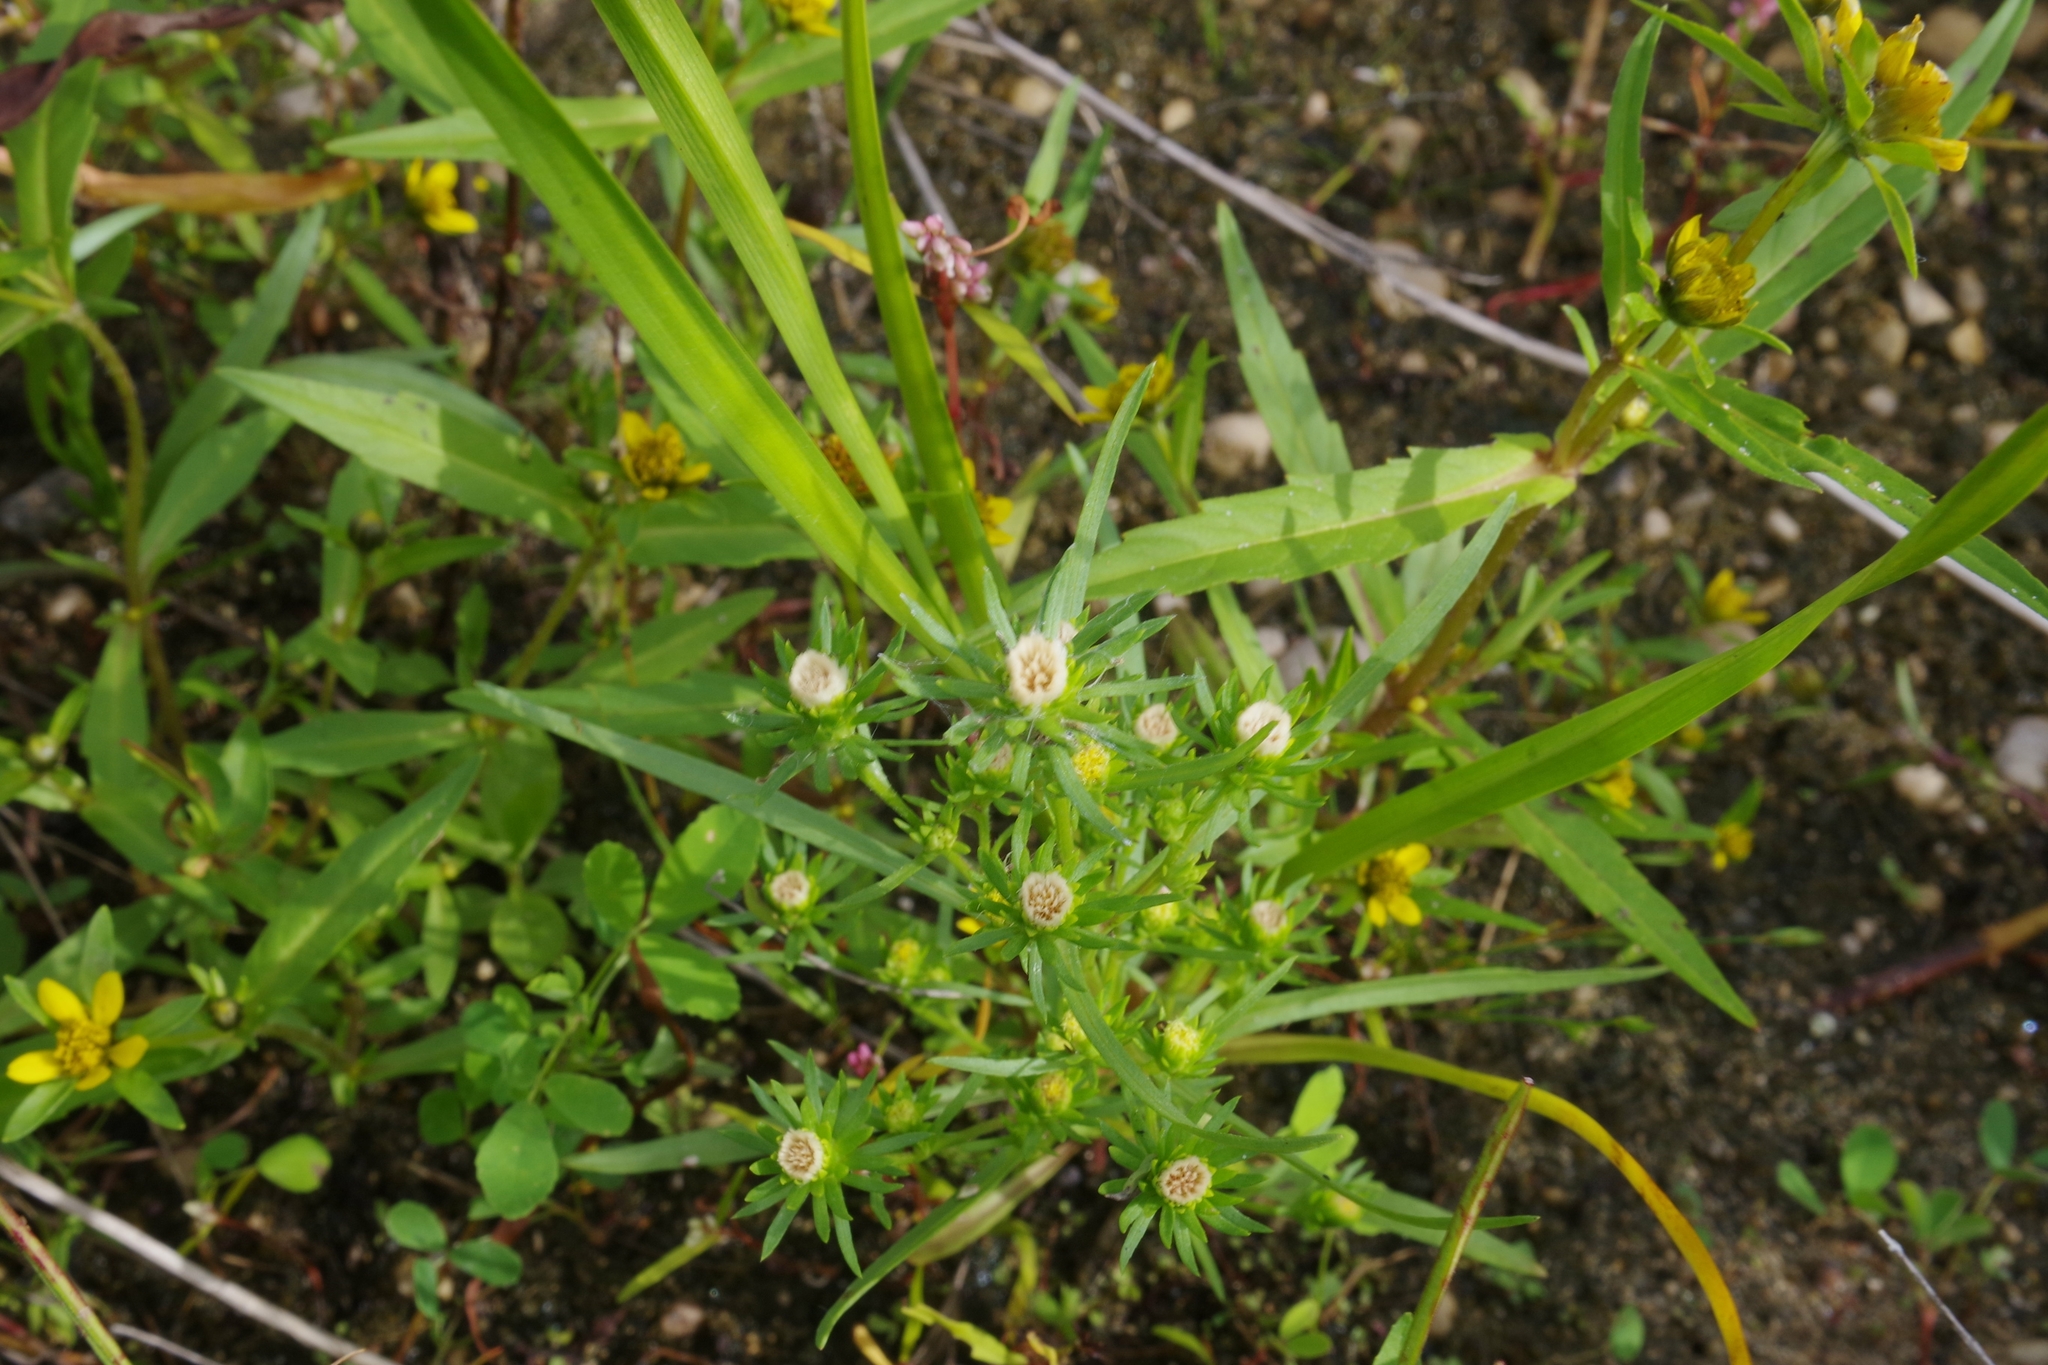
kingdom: Plantae
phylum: Tracheophyta
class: Magnoliopsida
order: Asterales
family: Asteraceae
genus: Erigeron
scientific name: Erigeron canadensis
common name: Canadian fleabane
